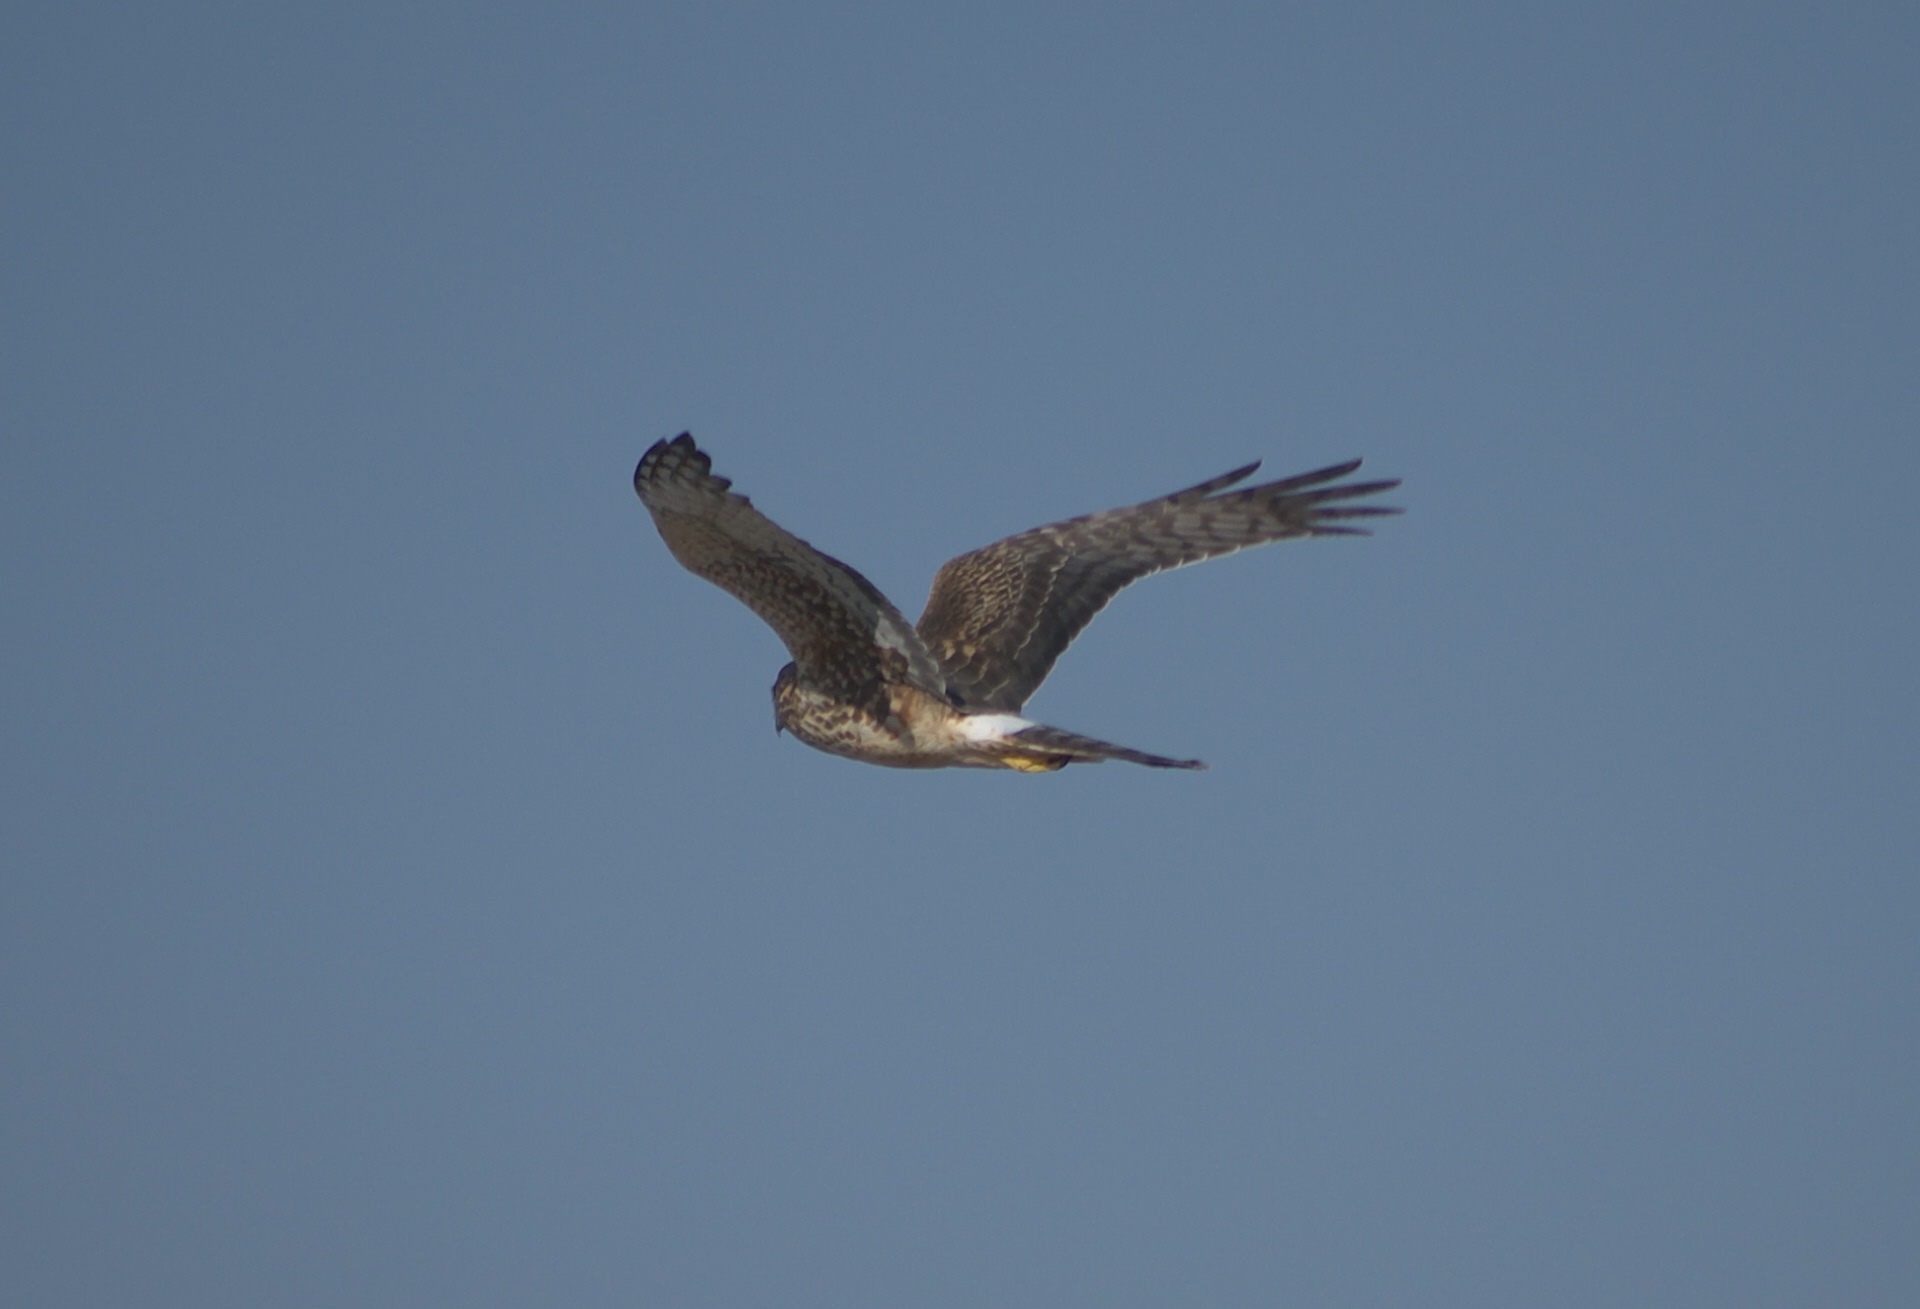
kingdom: Animalia
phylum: Chordata
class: Aves
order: Accipitriformes
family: Accipitridae
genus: Circus
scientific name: Circus cyaneus
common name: Hen harrier
